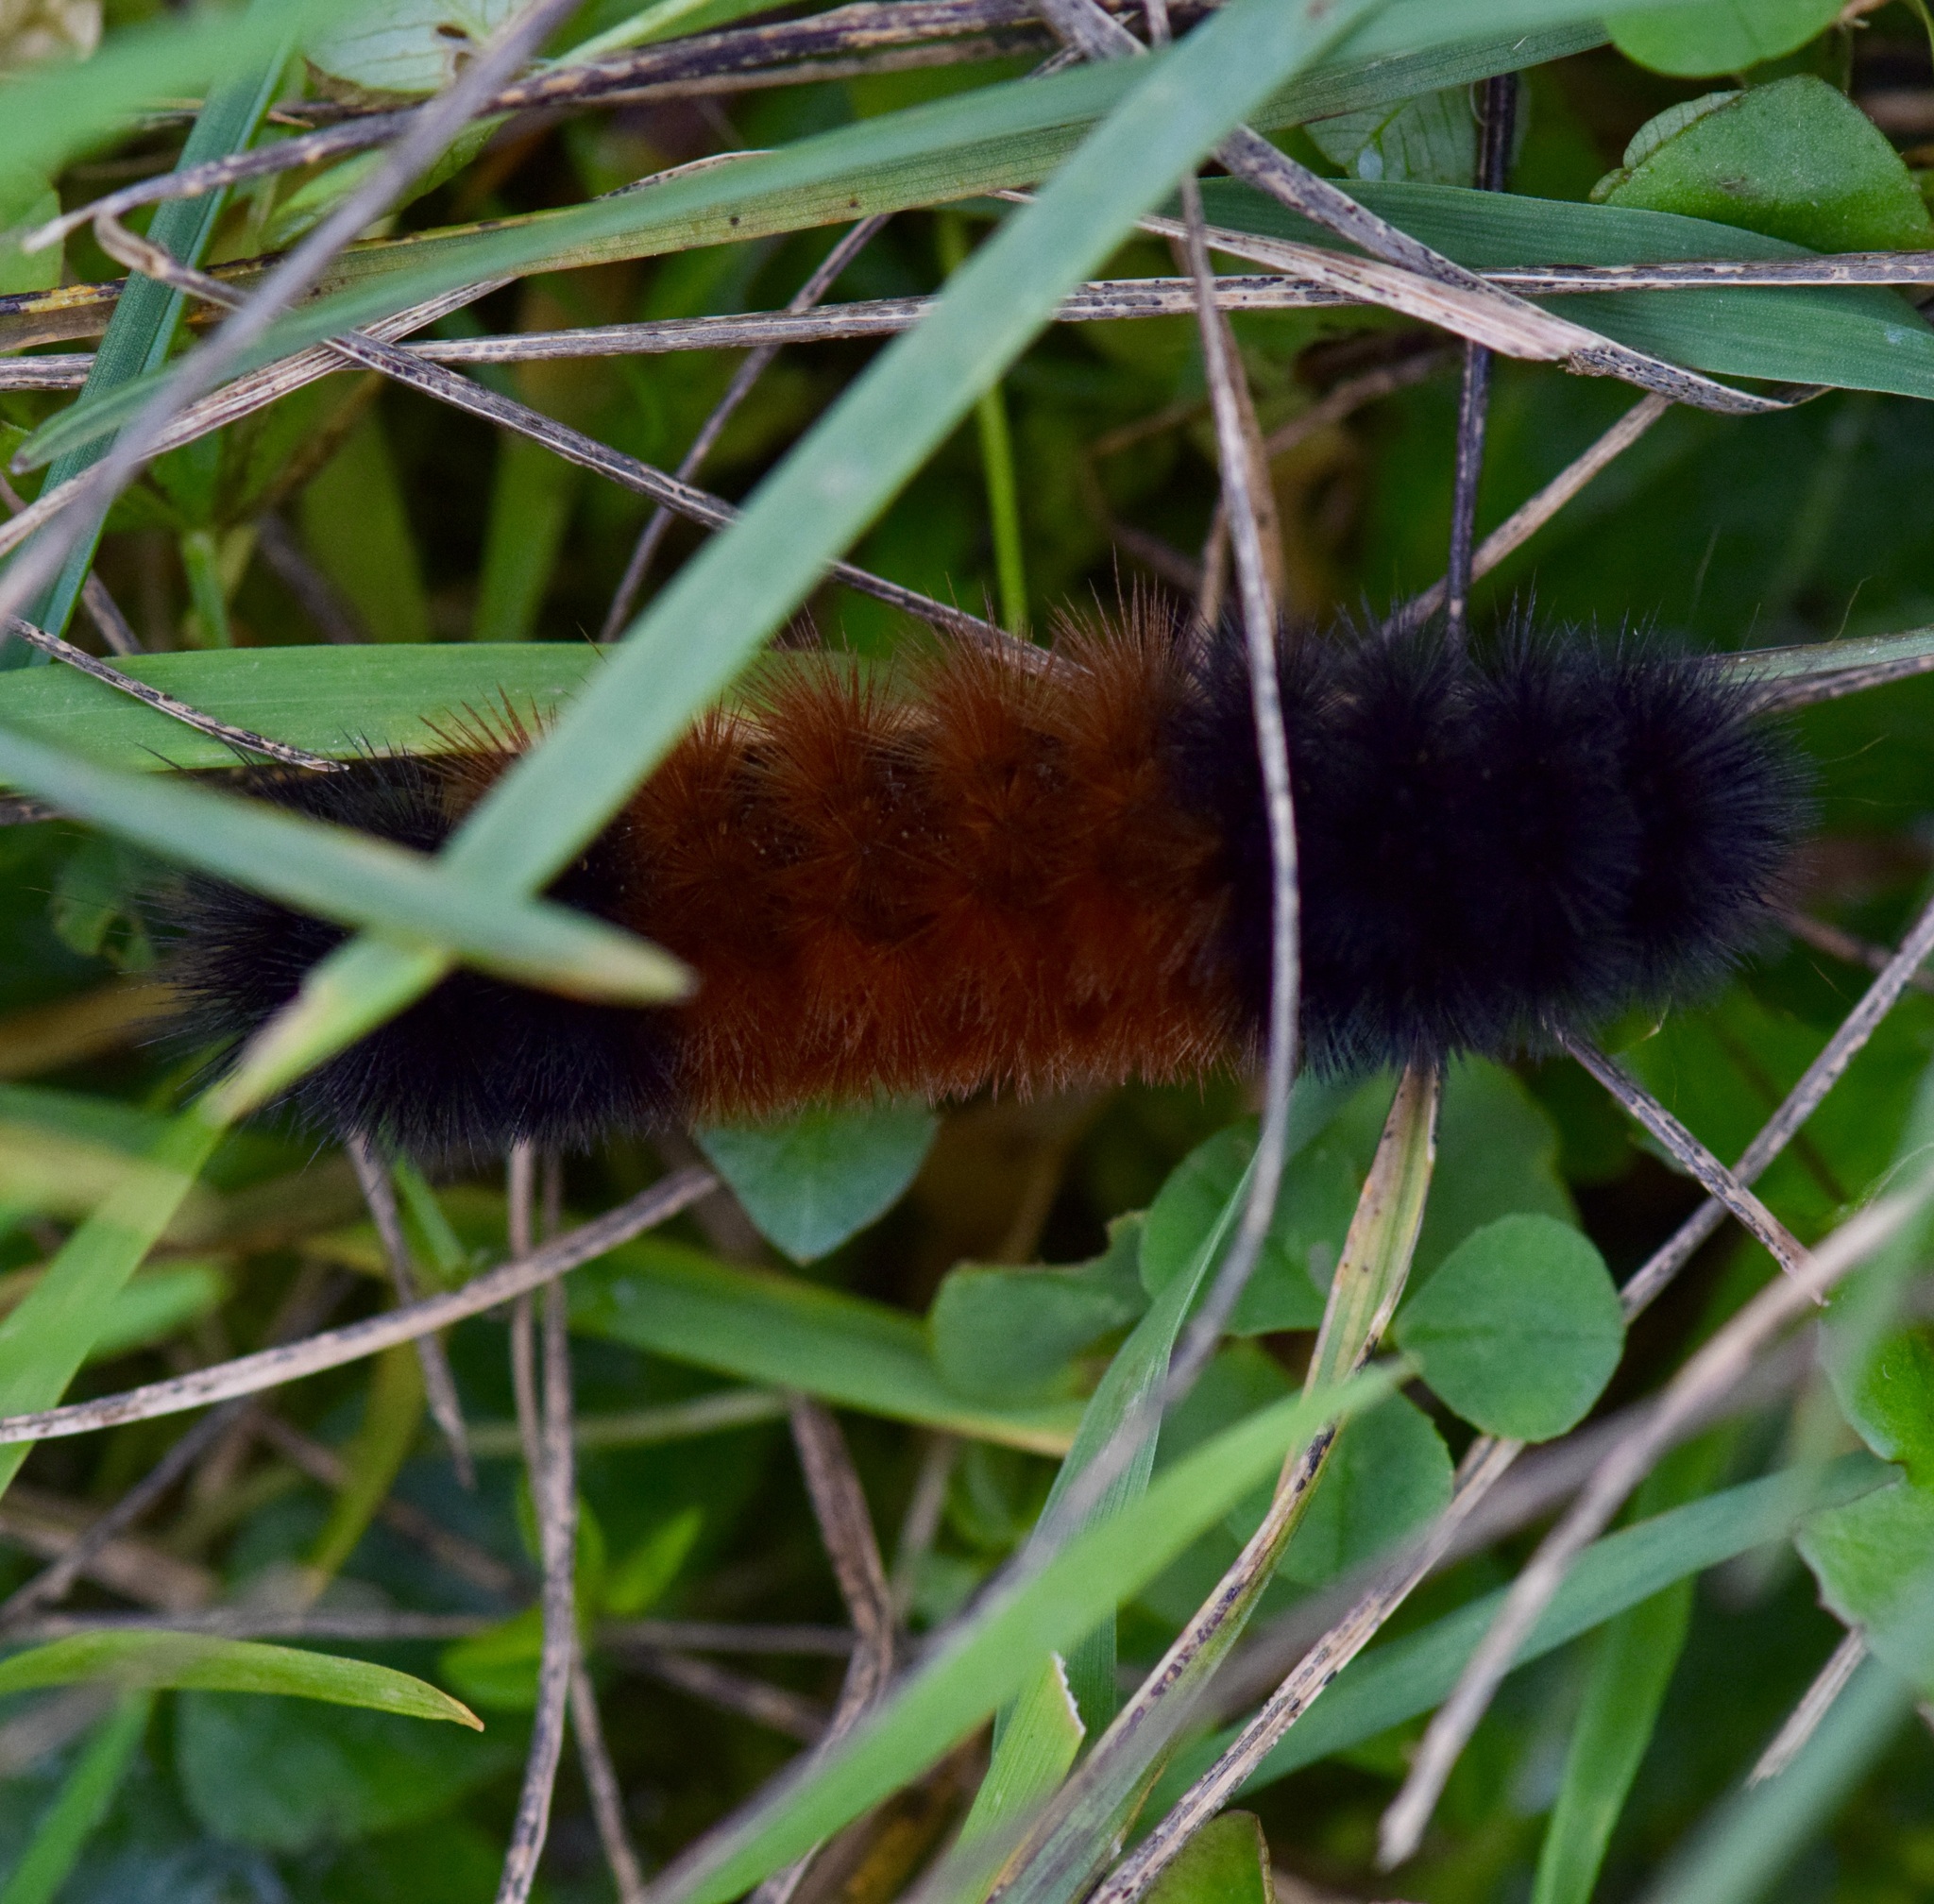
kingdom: Animalia
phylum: Arthropoda
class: Insecta
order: Lepidoptera
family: Erebidae
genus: Pyrrharctia
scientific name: Pyrrharctia isabella
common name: Isabella tiger moth
